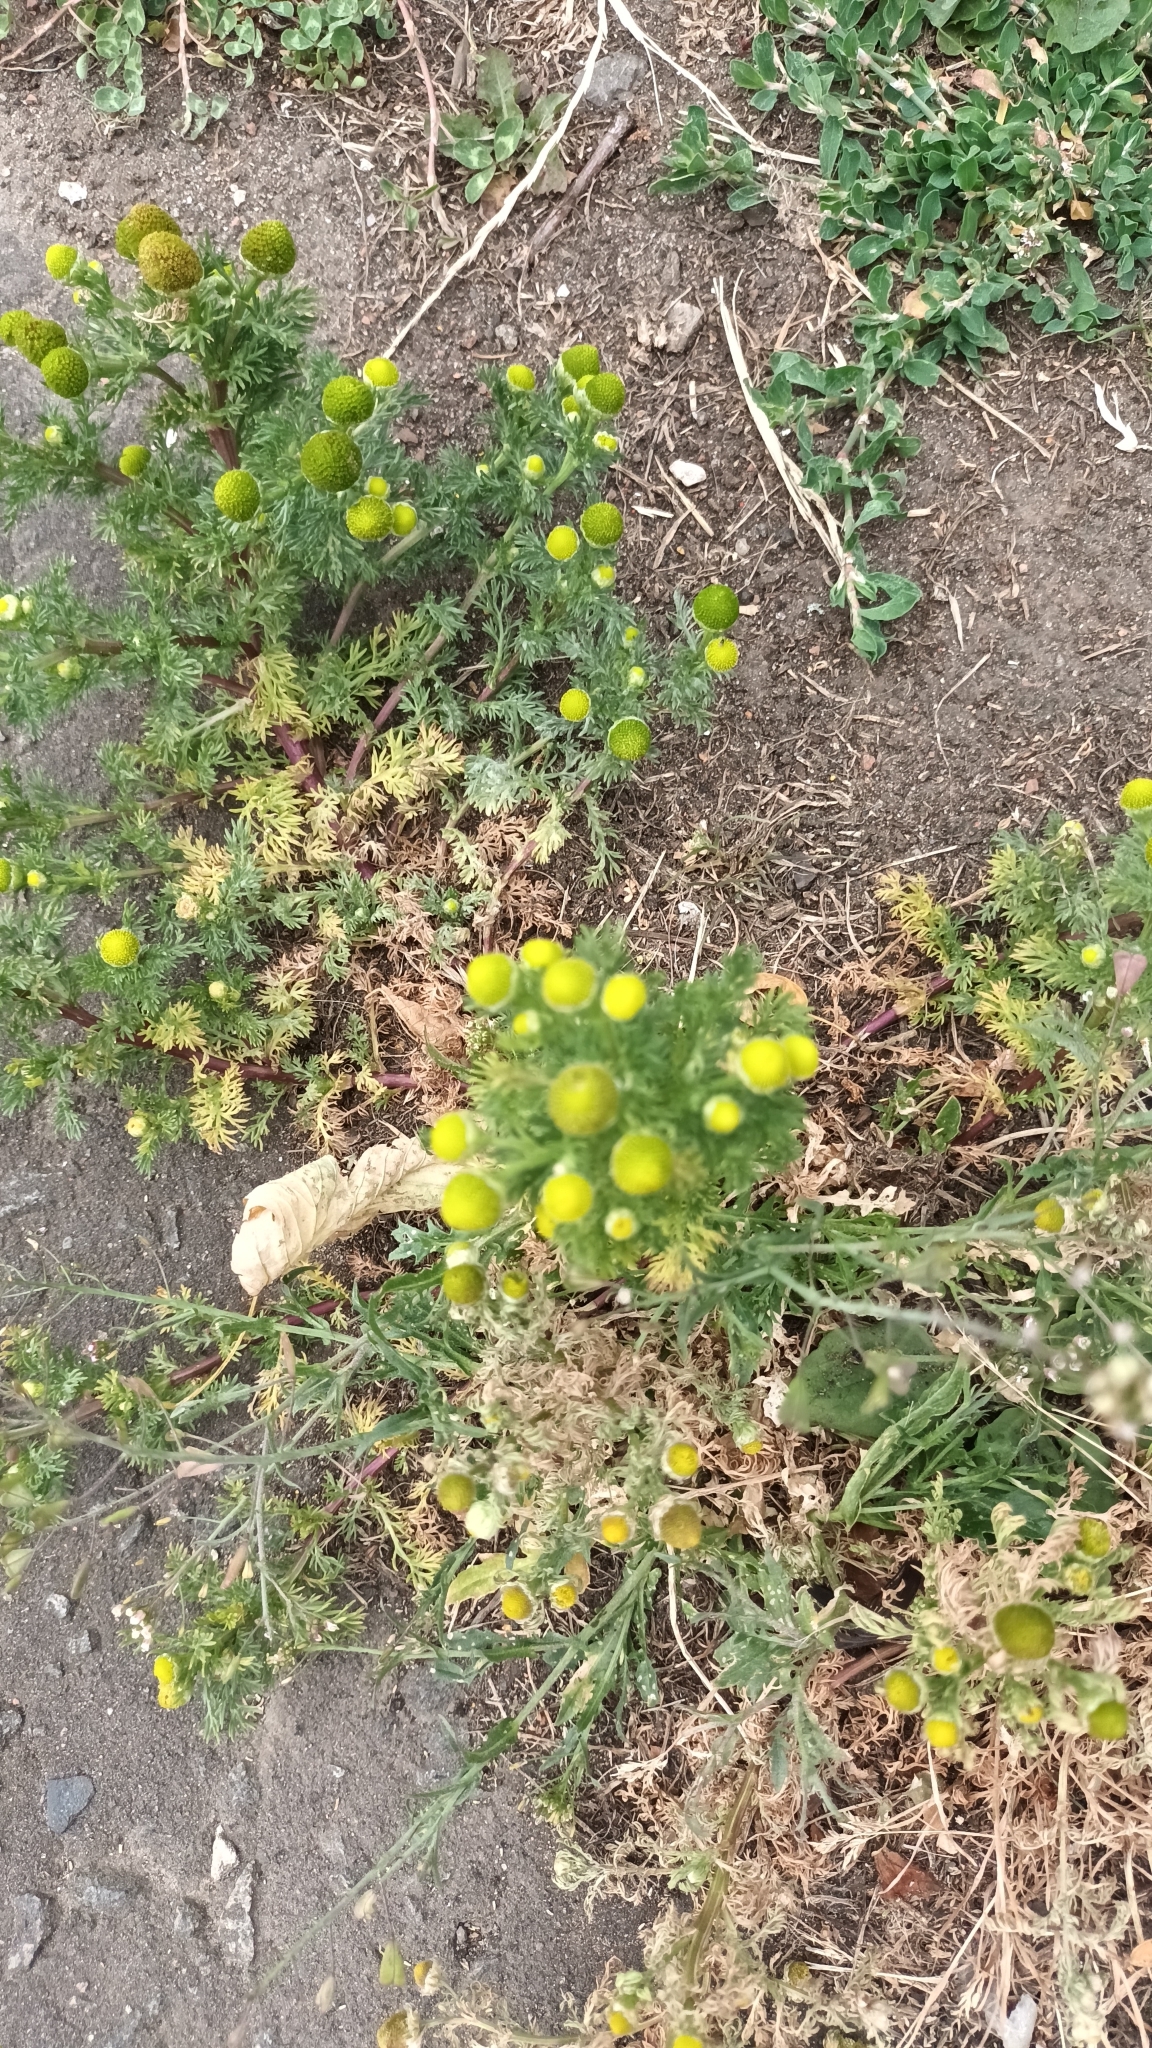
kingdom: Plantae
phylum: Tracheophyta
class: Magnoliopsida
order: Asterales
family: Asteraceae
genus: Matricaria
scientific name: Matricaria discoidea
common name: Disc mayweed
